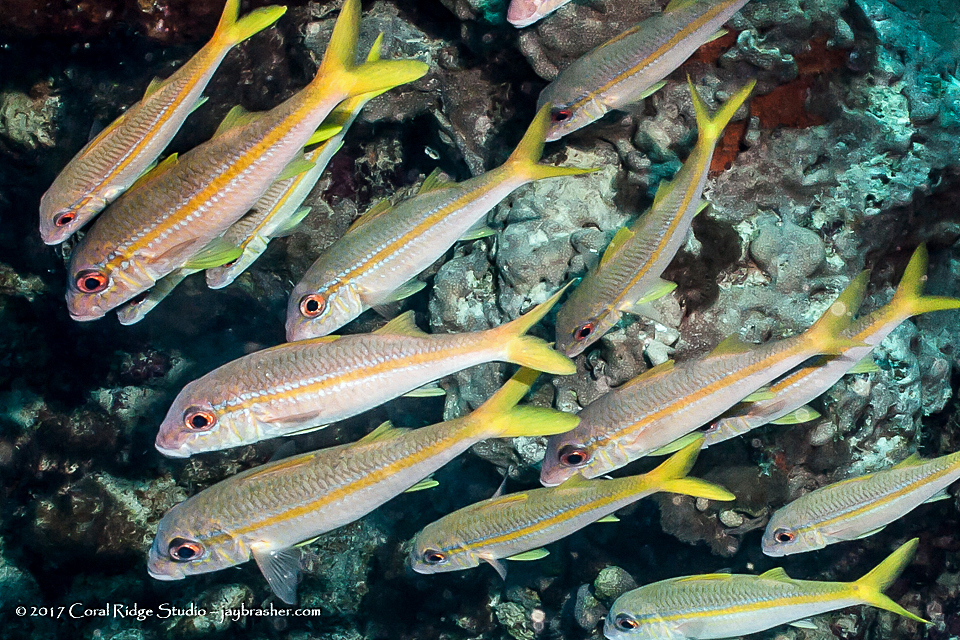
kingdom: Animalia
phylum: Chordata
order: Perciformes
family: Mullidae
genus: Mulloidichthys
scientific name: Mulloidichthys martinicus
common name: Yellow goatfish
